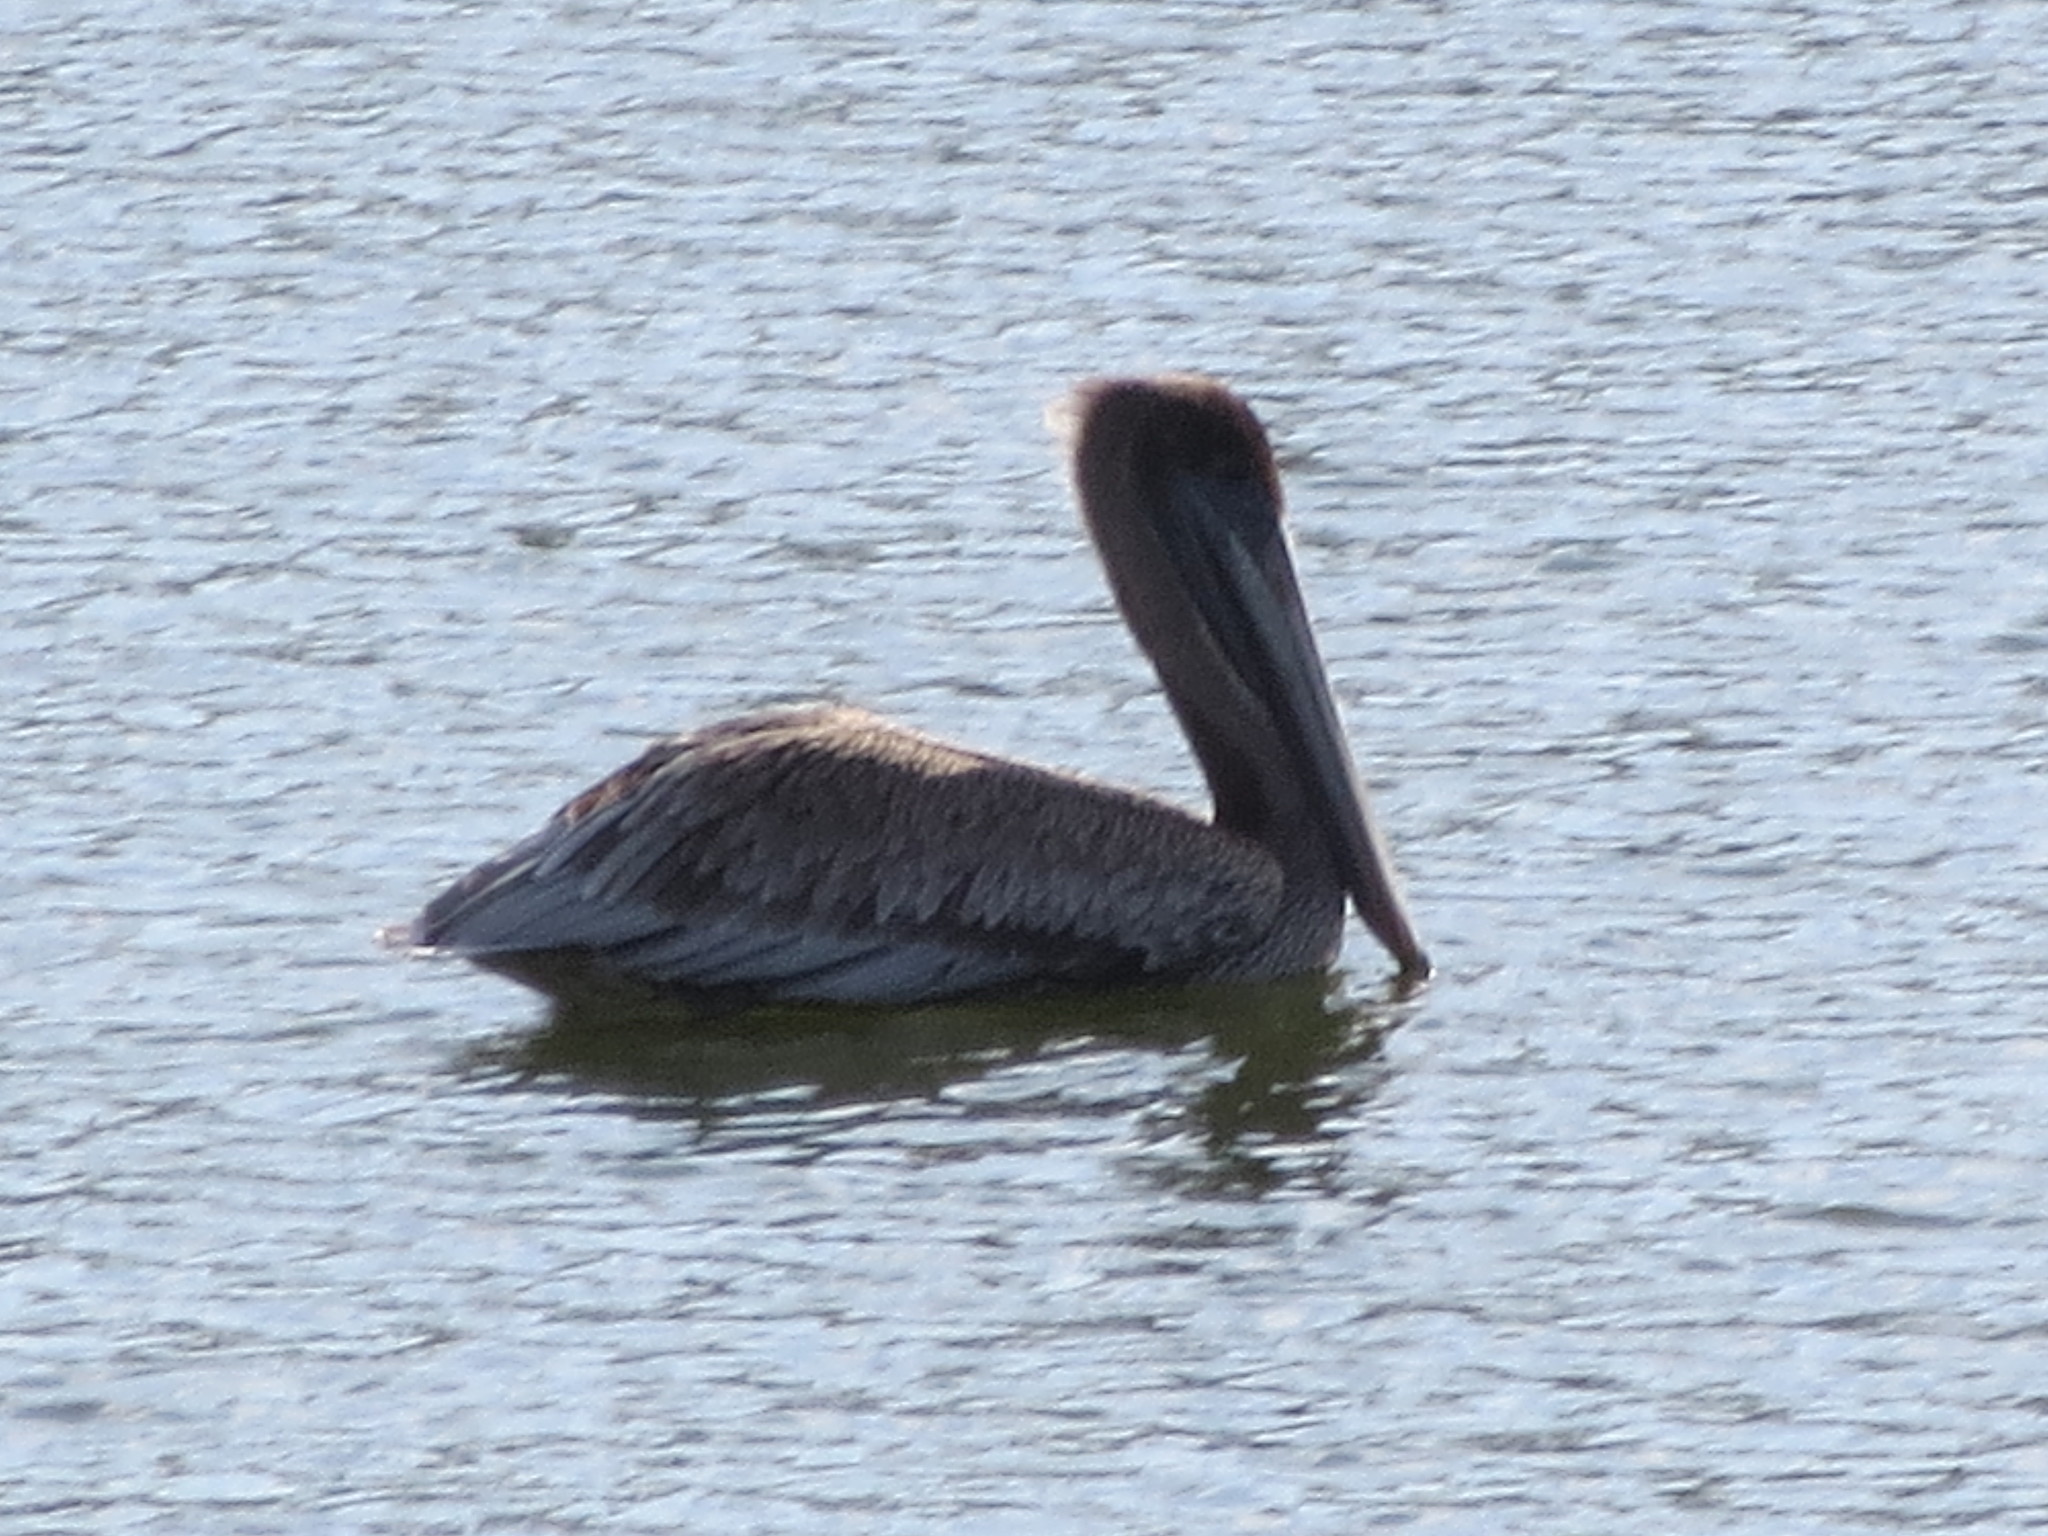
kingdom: Animalia
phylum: Chordata
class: Aves
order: Pelecaniformes
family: Pelecanidae
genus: Pelecanus
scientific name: Pelecanus occidentalis
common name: Brown pelican
